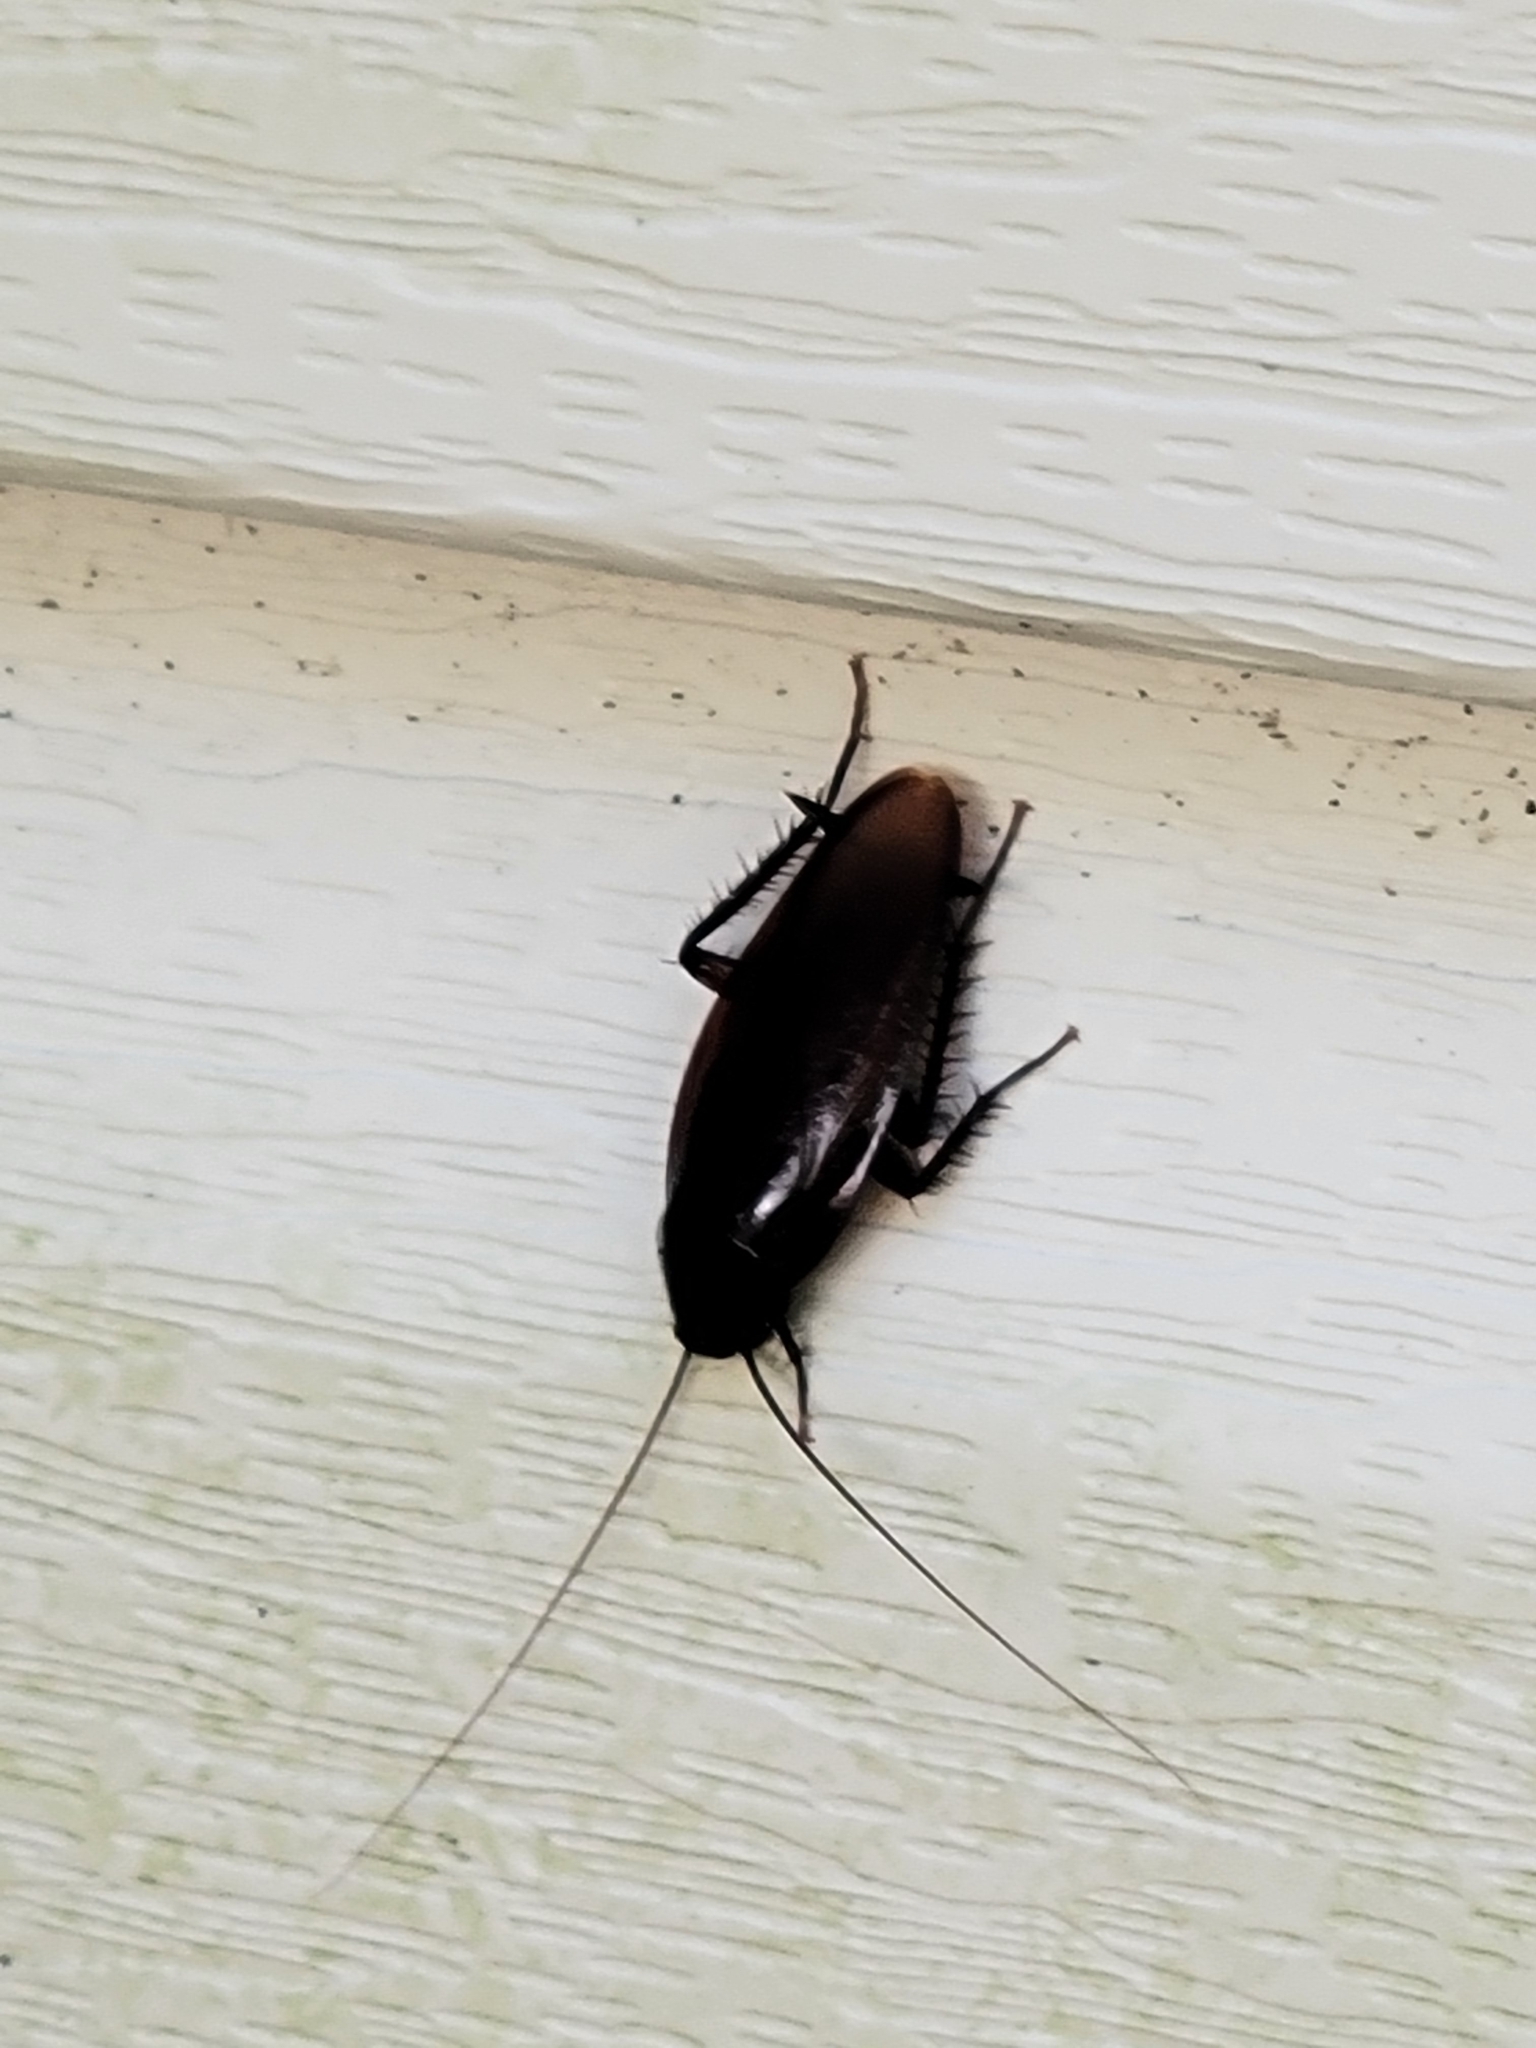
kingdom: Animalia
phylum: Arthropoda
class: Insecta
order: Blattodea
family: Blattidae
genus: Periplaneta
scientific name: Periplaneta fuliginosa
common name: Smokeybrown cockroad
